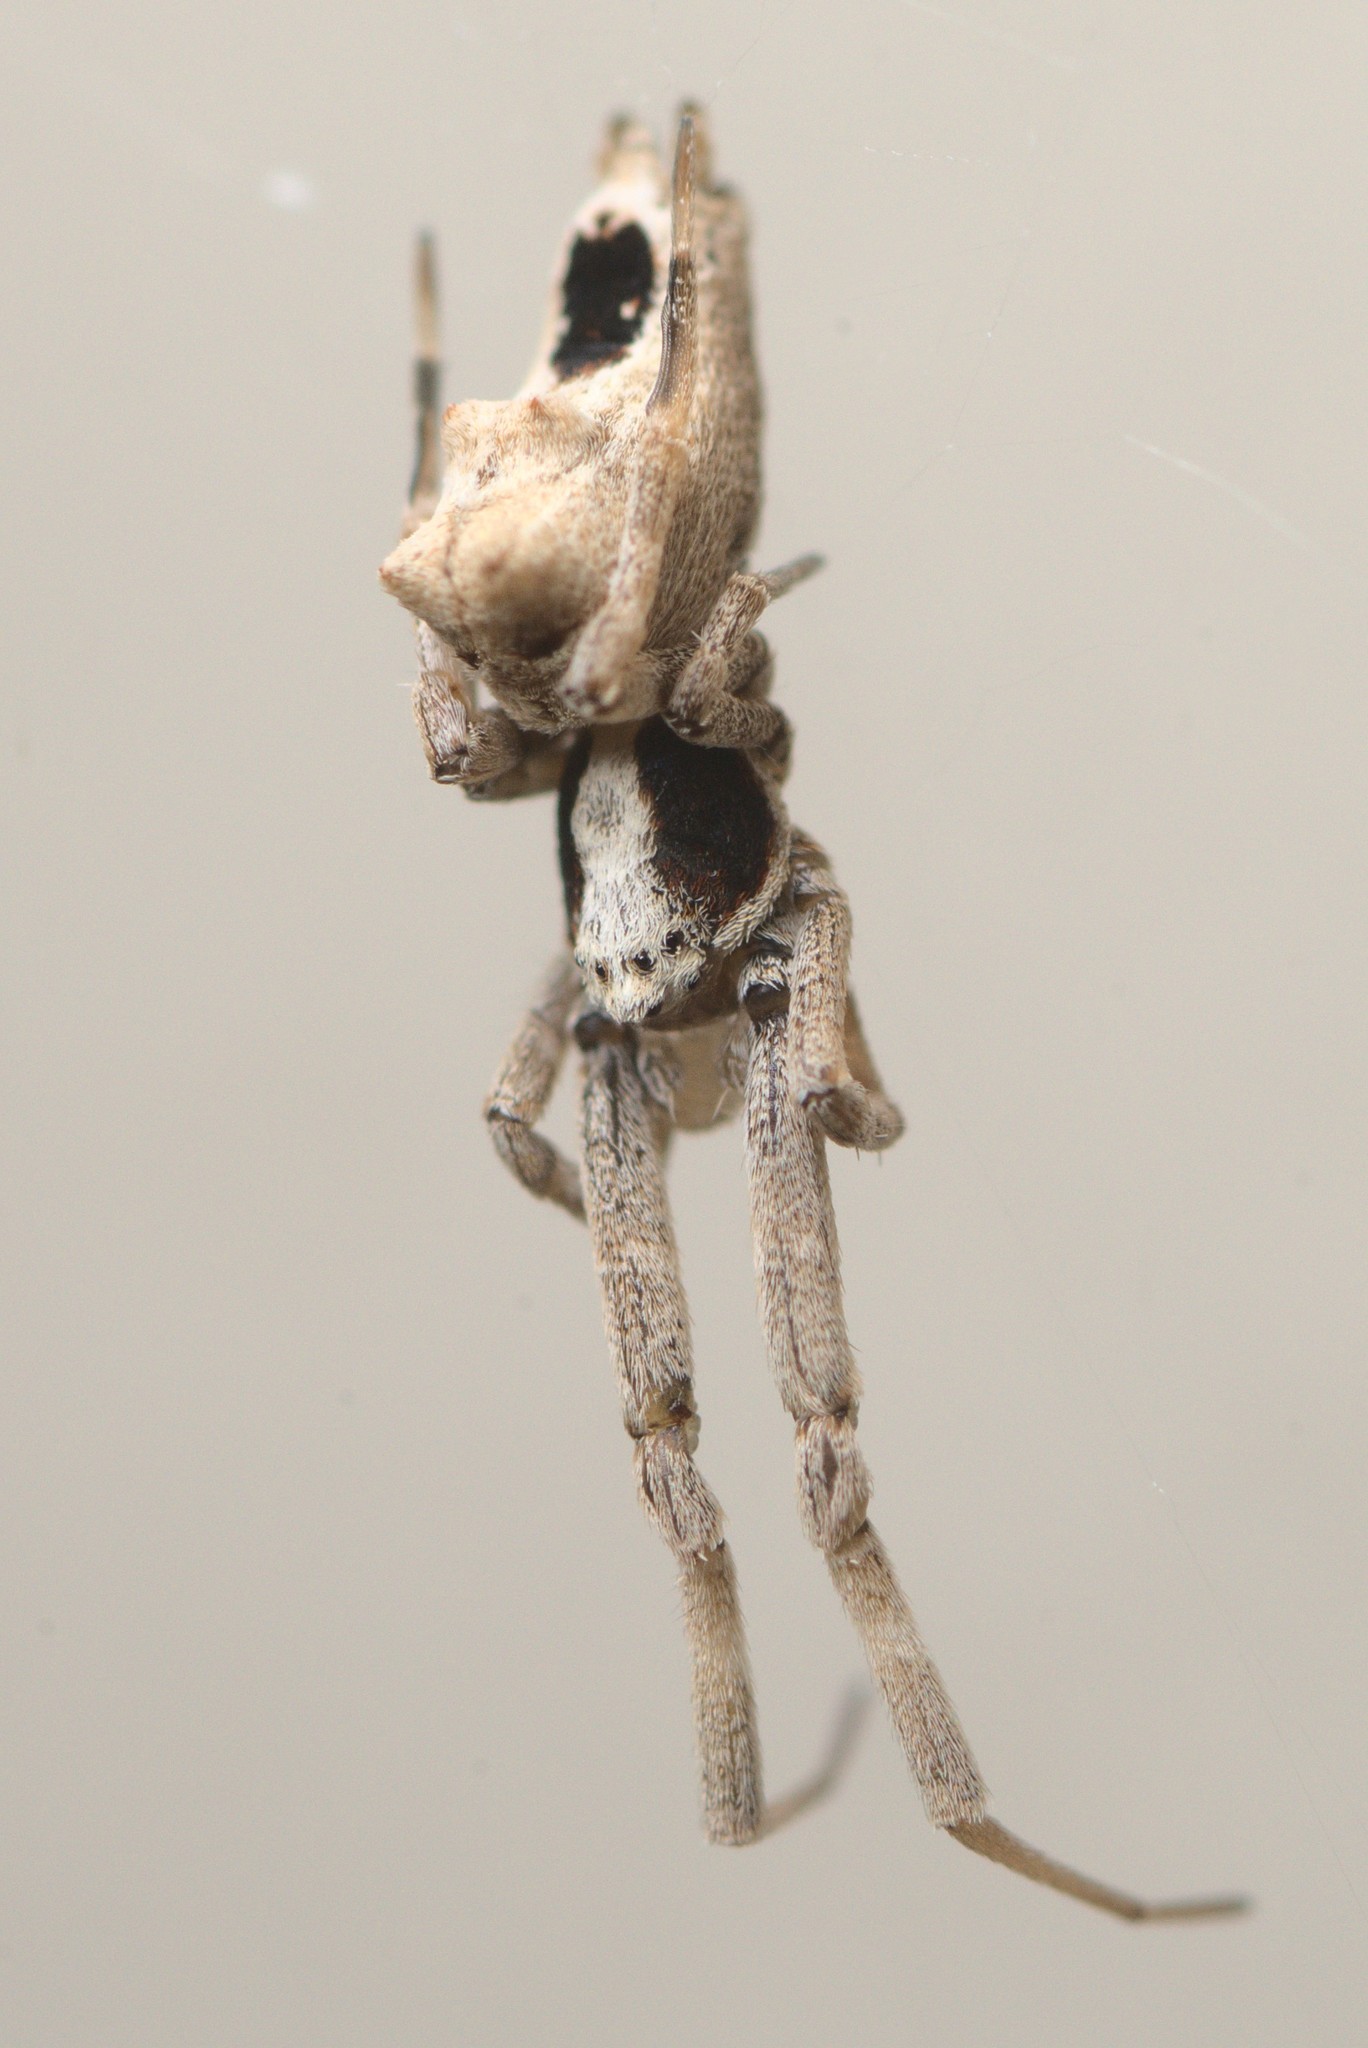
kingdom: Animalia
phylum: Arthropoda
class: Arachnida
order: Araneae
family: Uloboridae
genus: Philoponella
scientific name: Philoponella congregabilis
